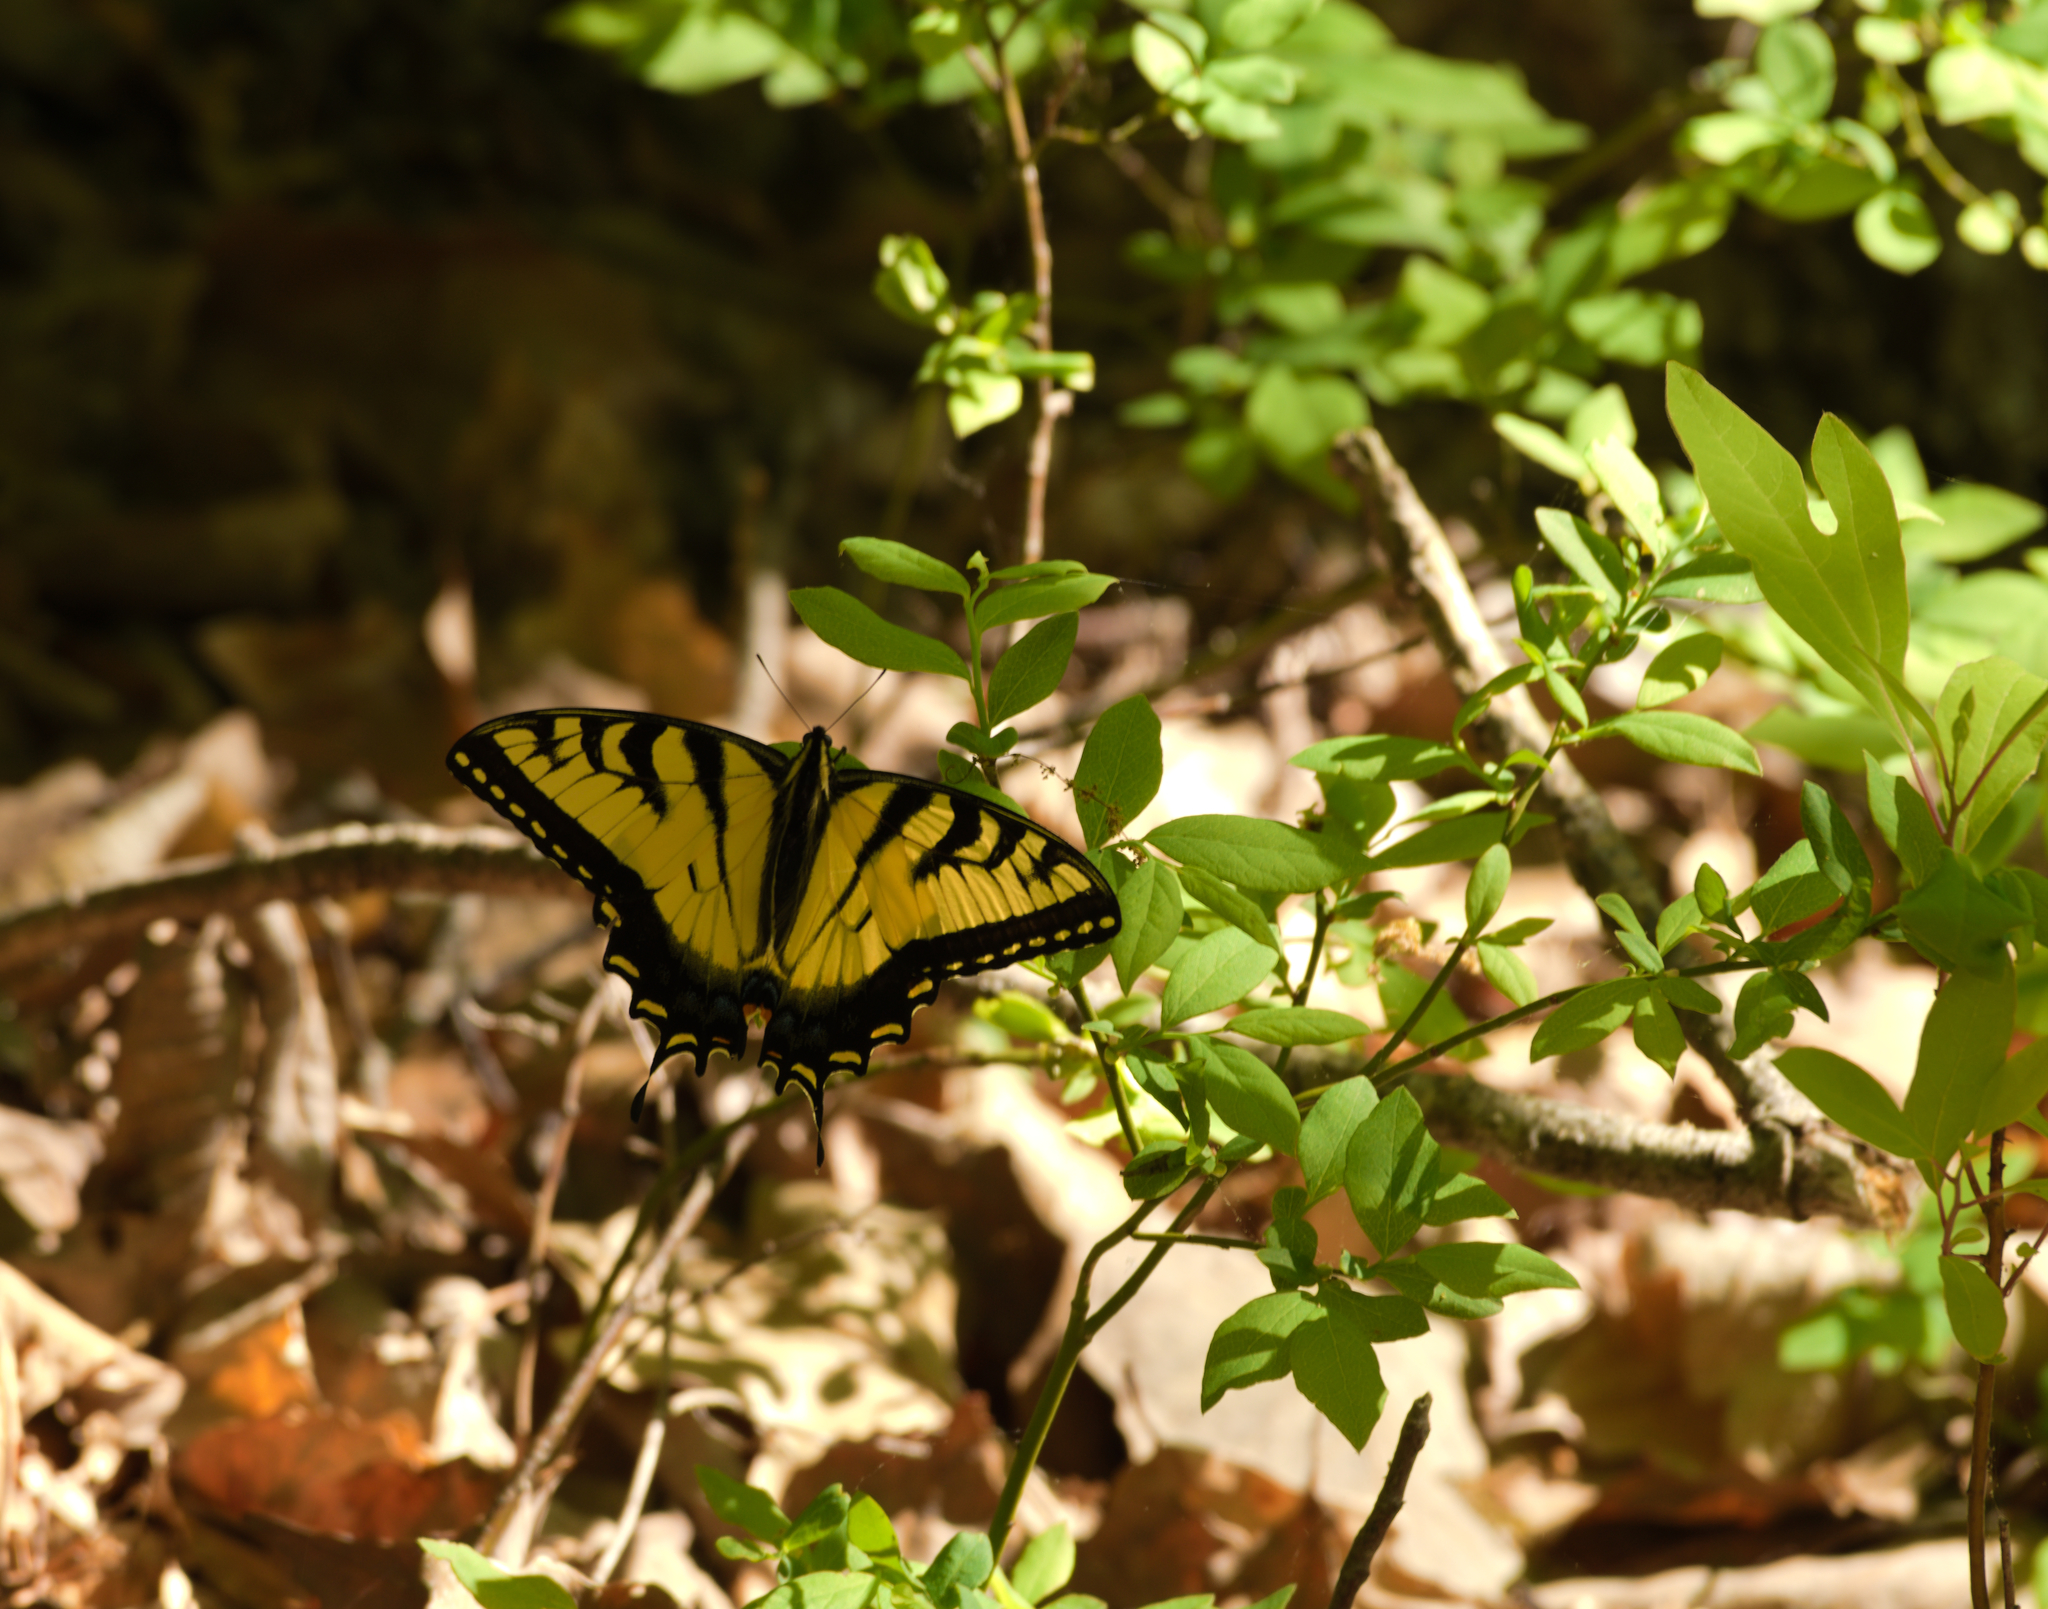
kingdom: Animalia
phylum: Arthropoda
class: Insecta
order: Lepidoptera
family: Papilionidae
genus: Papilio
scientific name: Papilio glaucus
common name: Tiger swallowtail
